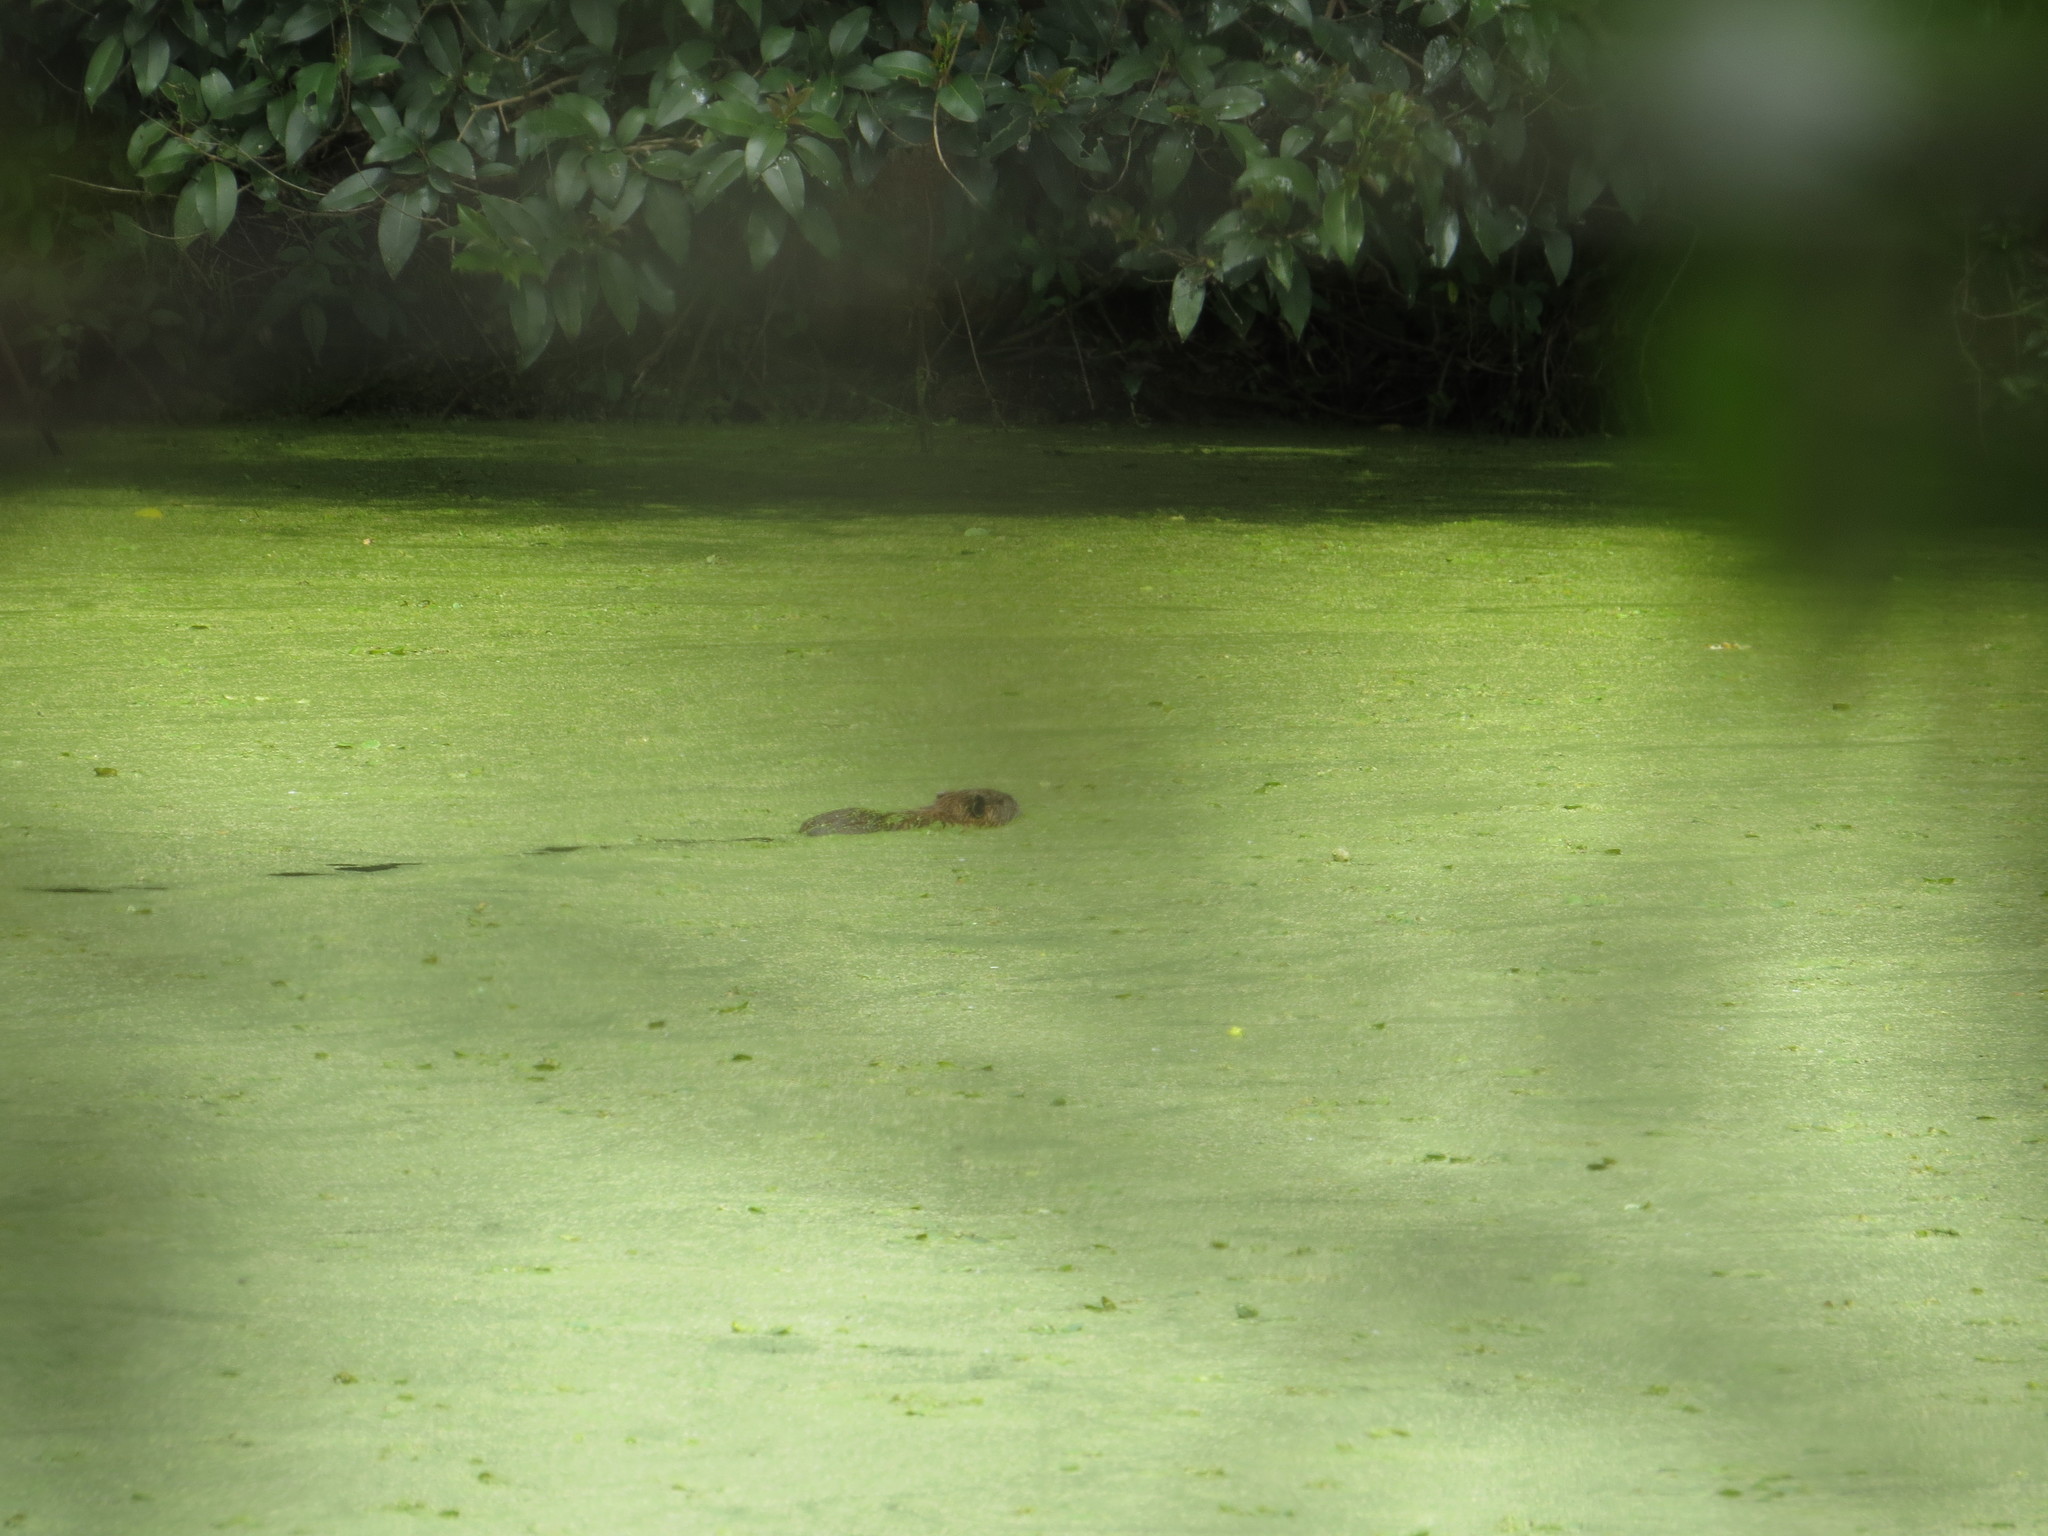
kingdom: Animalia
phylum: Chordata
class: Mammalia
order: Rodentia
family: Myocastoridae
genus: Myocastor
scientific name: Myocastor coypus
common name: Coypu
